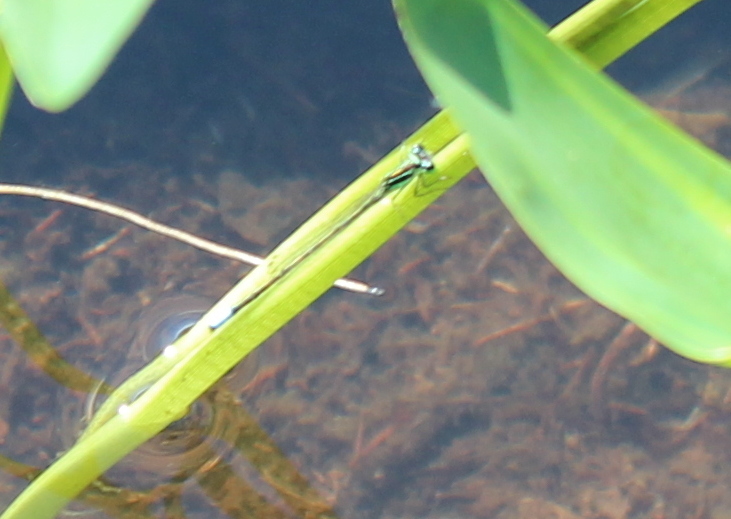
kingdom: Animalia
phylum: Arthropoda
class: Insecta
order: Odonata
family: Coenagrionidae
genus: Ischnura
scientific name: Ischnura verticalis
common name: Eastern forktail
